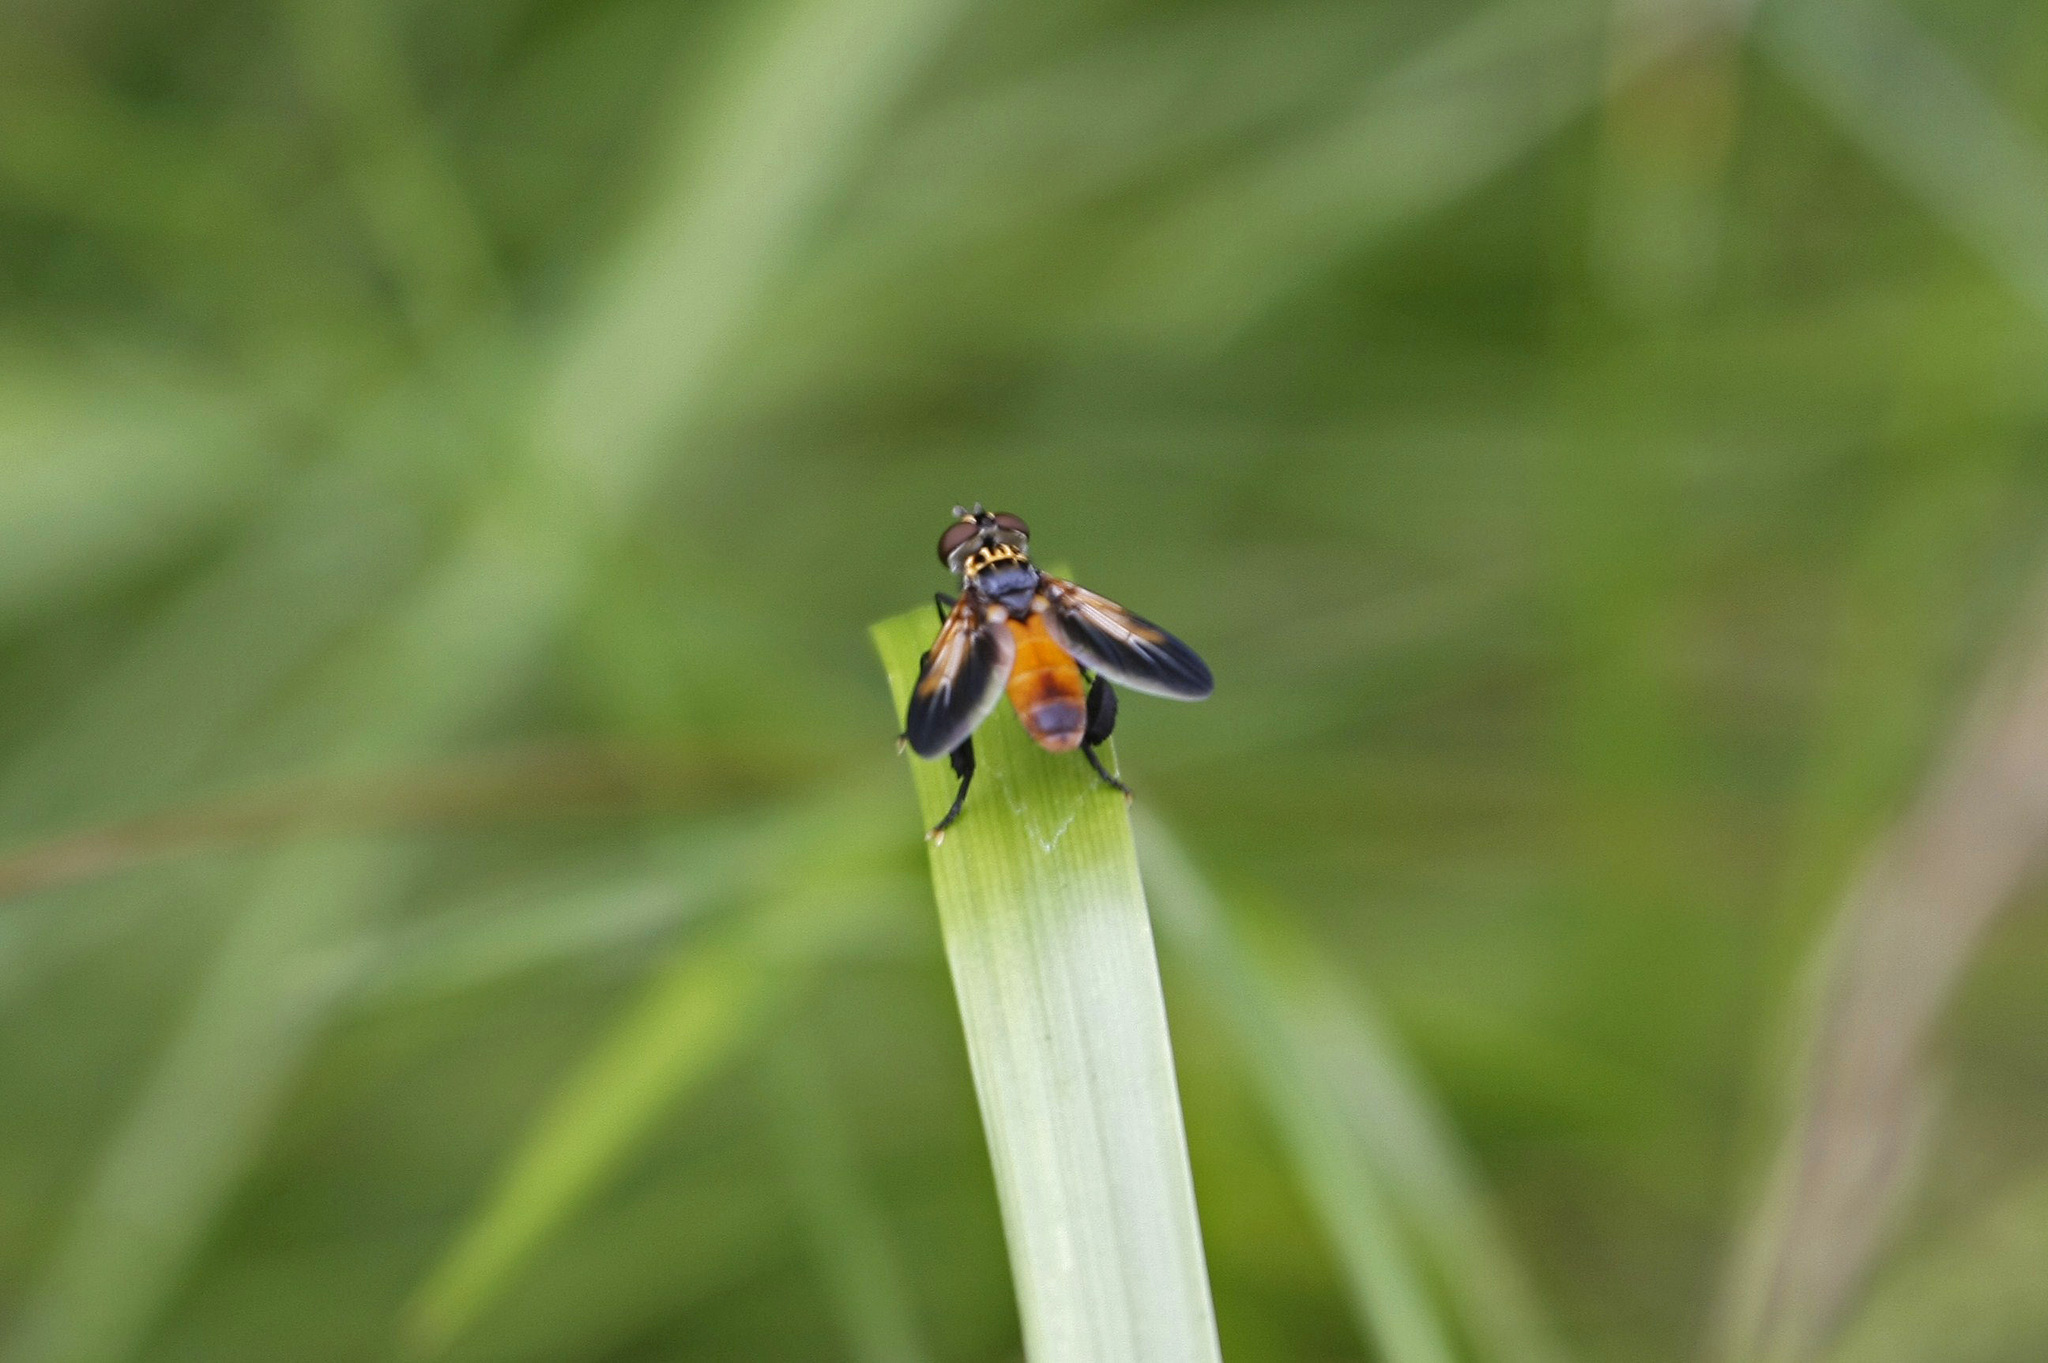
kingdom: Animalia
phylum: Arthropoda
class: Insecta
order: Diptera
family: Tachinidae
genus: Trichopoda
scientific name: Trichopoda pennipes
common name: Tachinid fly
